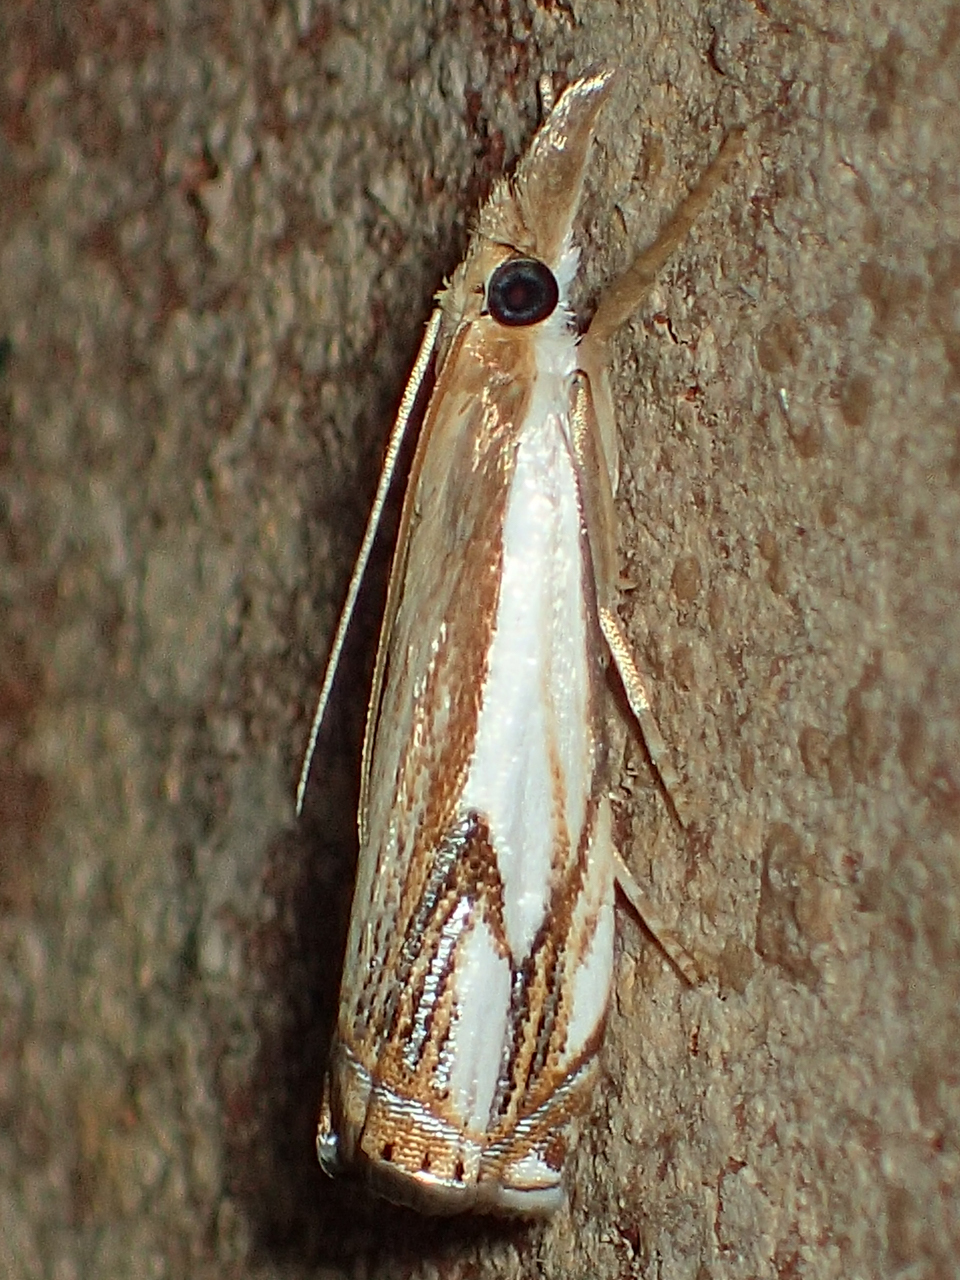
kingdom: Animalia
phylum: Arthropoda
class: Insecta
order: Lepidoptera
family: Crambidae
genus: Crambus
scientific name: Crambus agitatellus
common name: Double-banded grass-veneer
